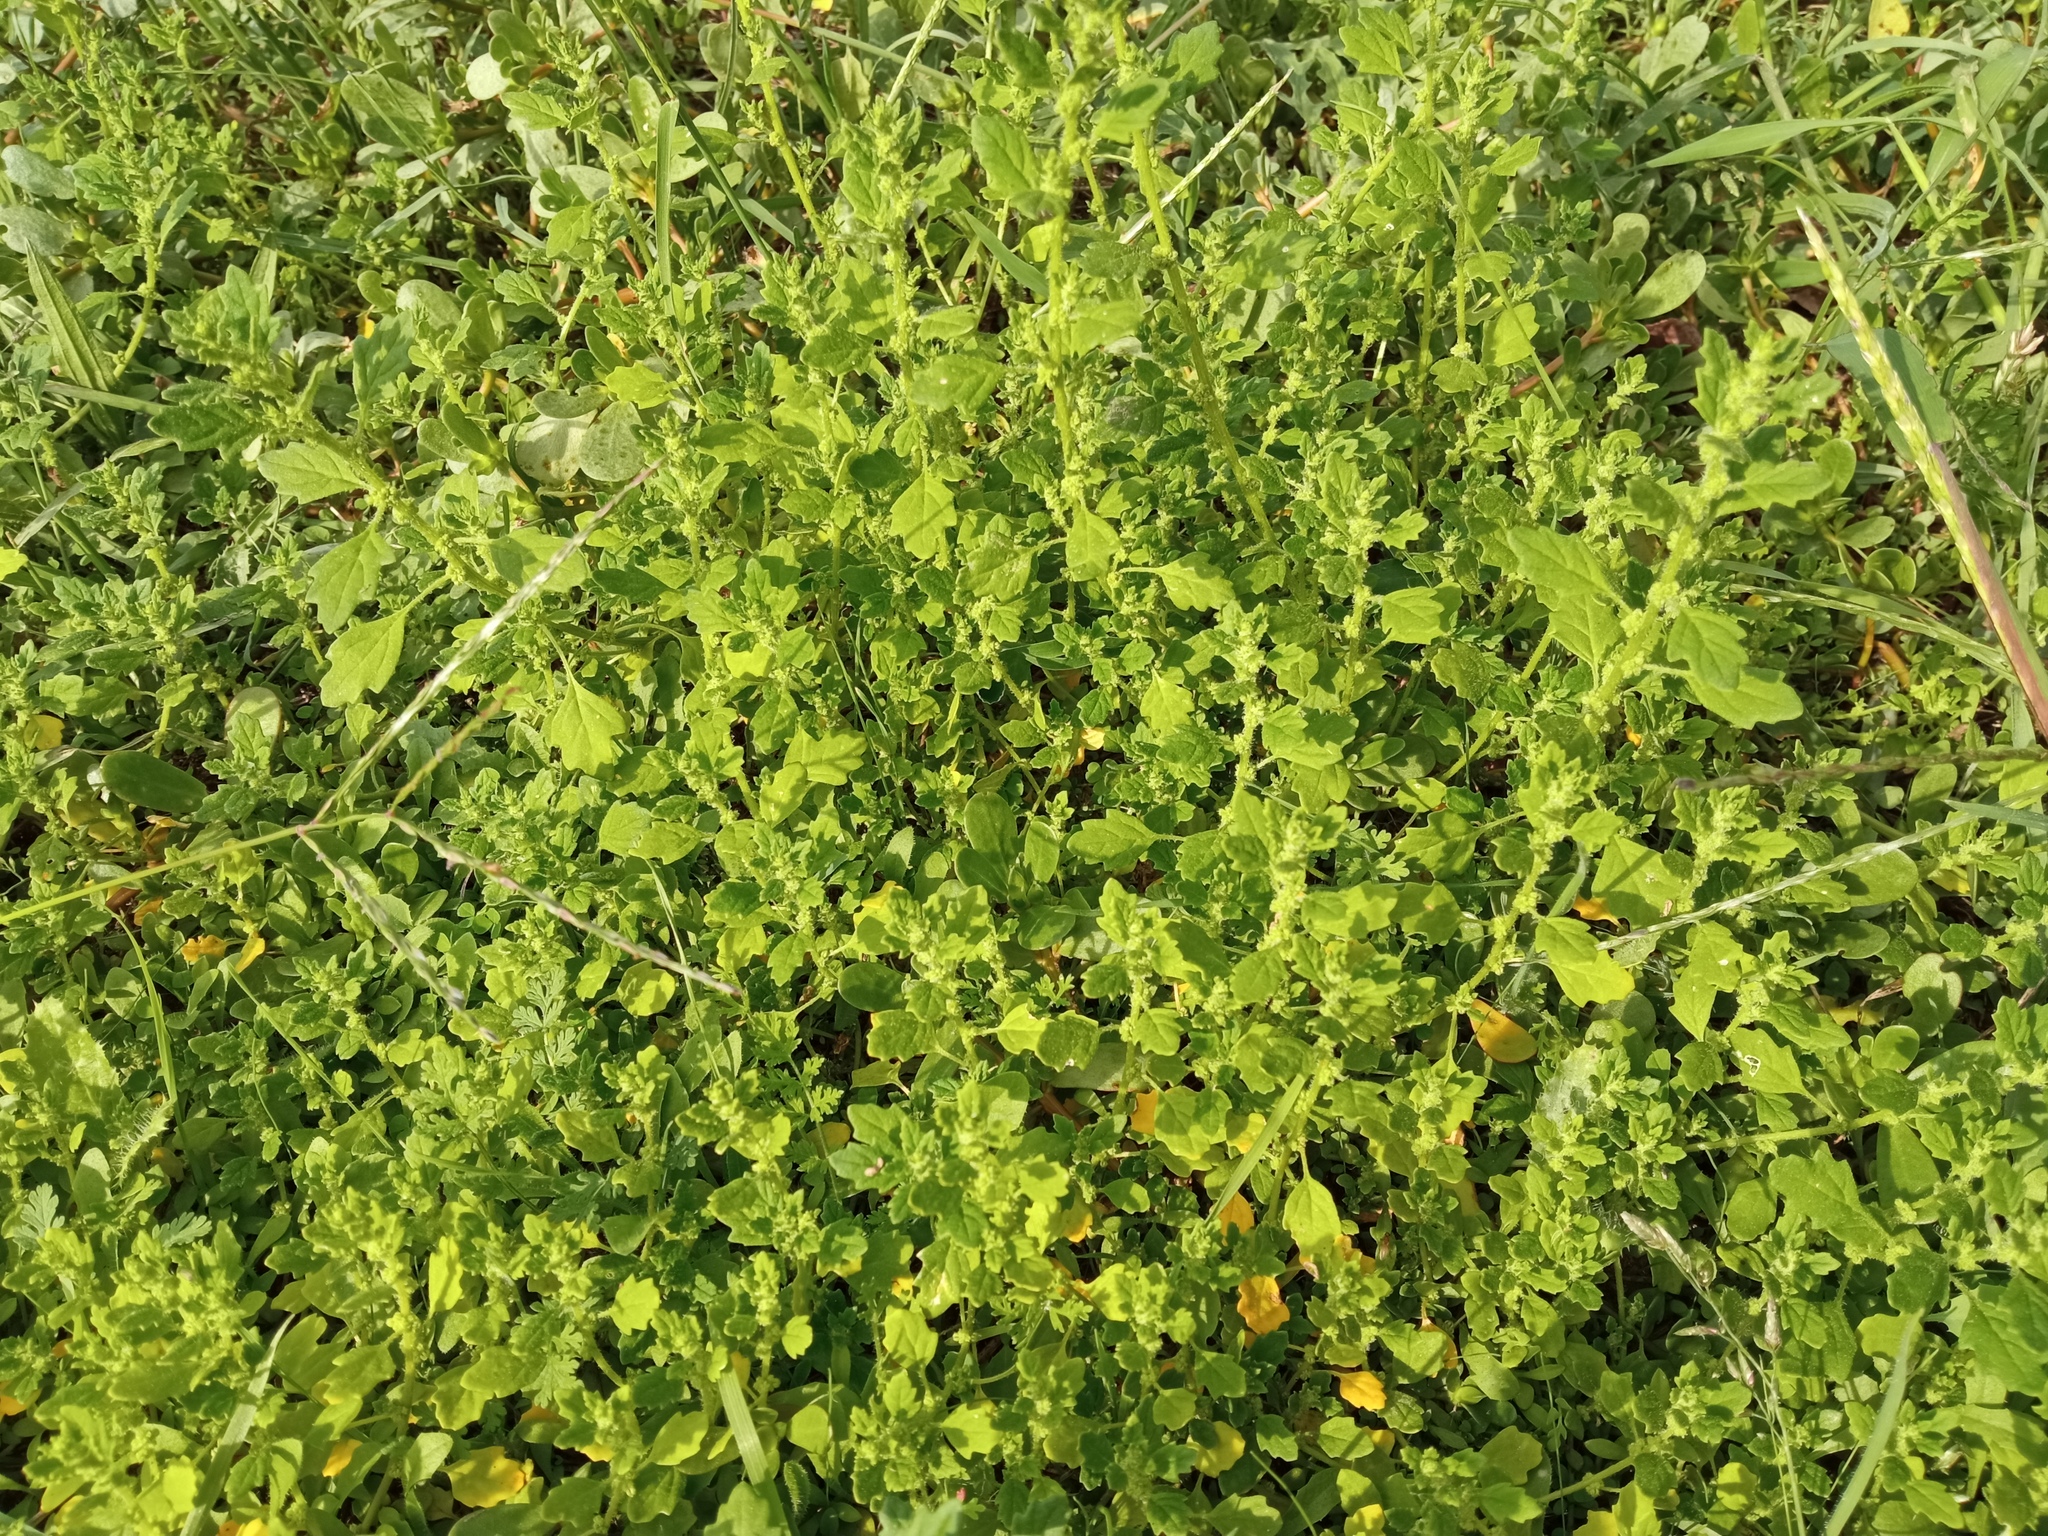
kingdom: Plantae
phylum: Tracheophyta
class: Magnoliopsida
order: Caryophyllales
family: Amaranthaceae
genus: Dysphania
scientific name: Dysphania pumilio
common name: Clammy goosefoot
